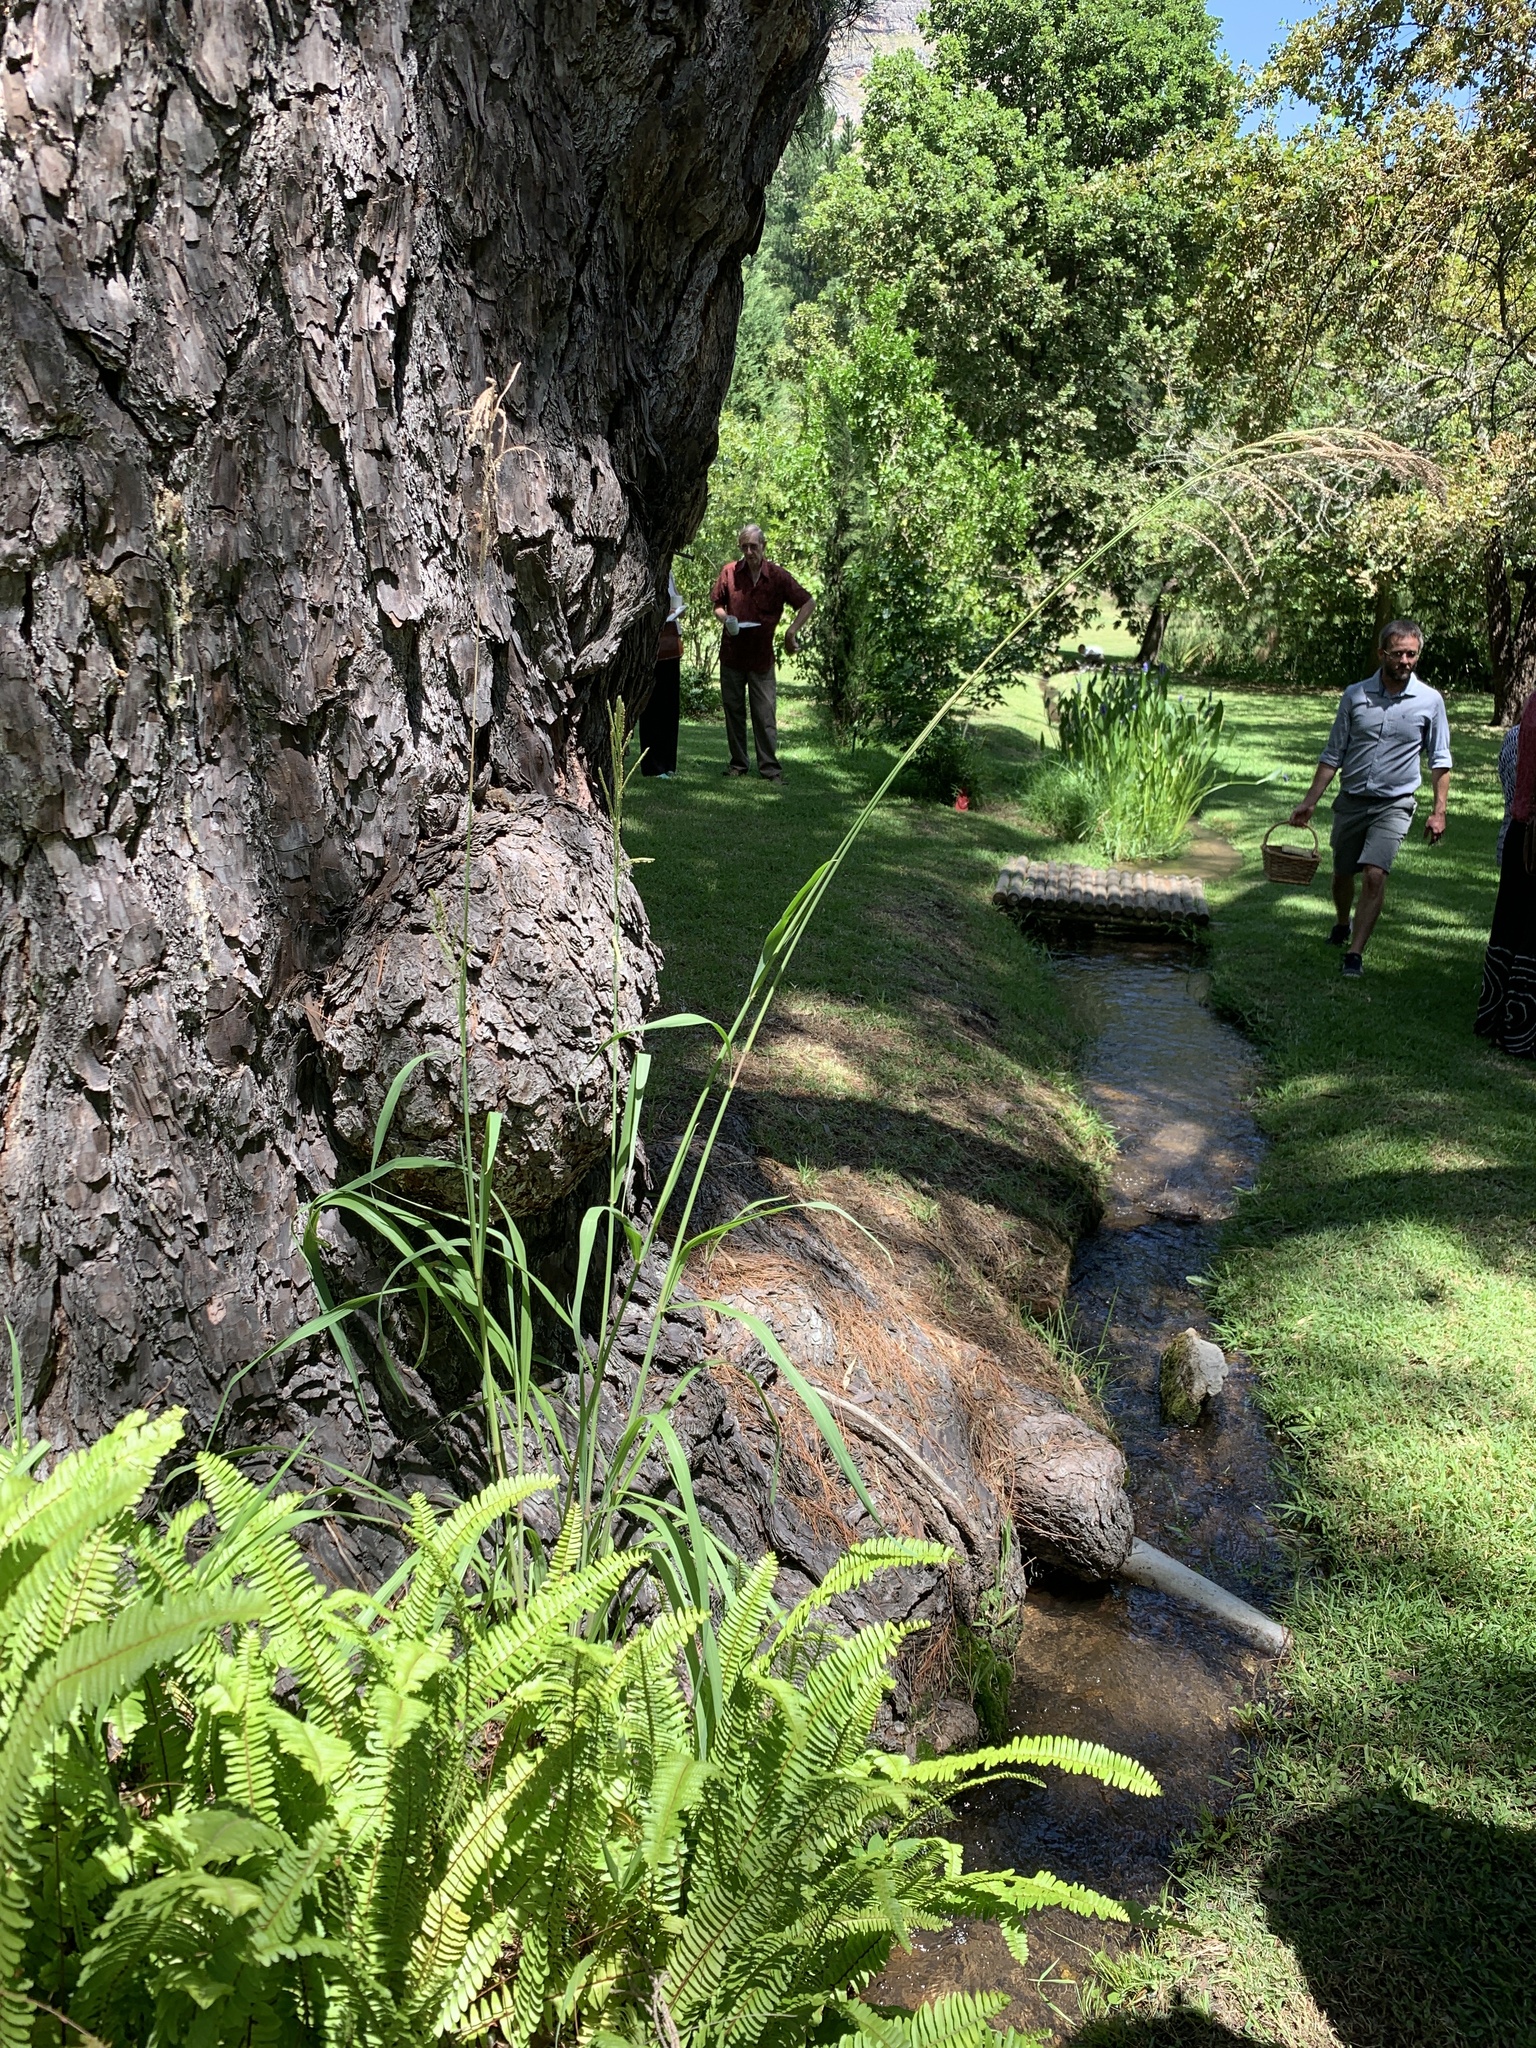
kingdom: Plantae
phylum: Tracheophyta
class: Liliopsida
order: Poales
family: Poaceae
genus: Paspalum
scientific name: Paspalum urvillei
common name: Vasey's grass
